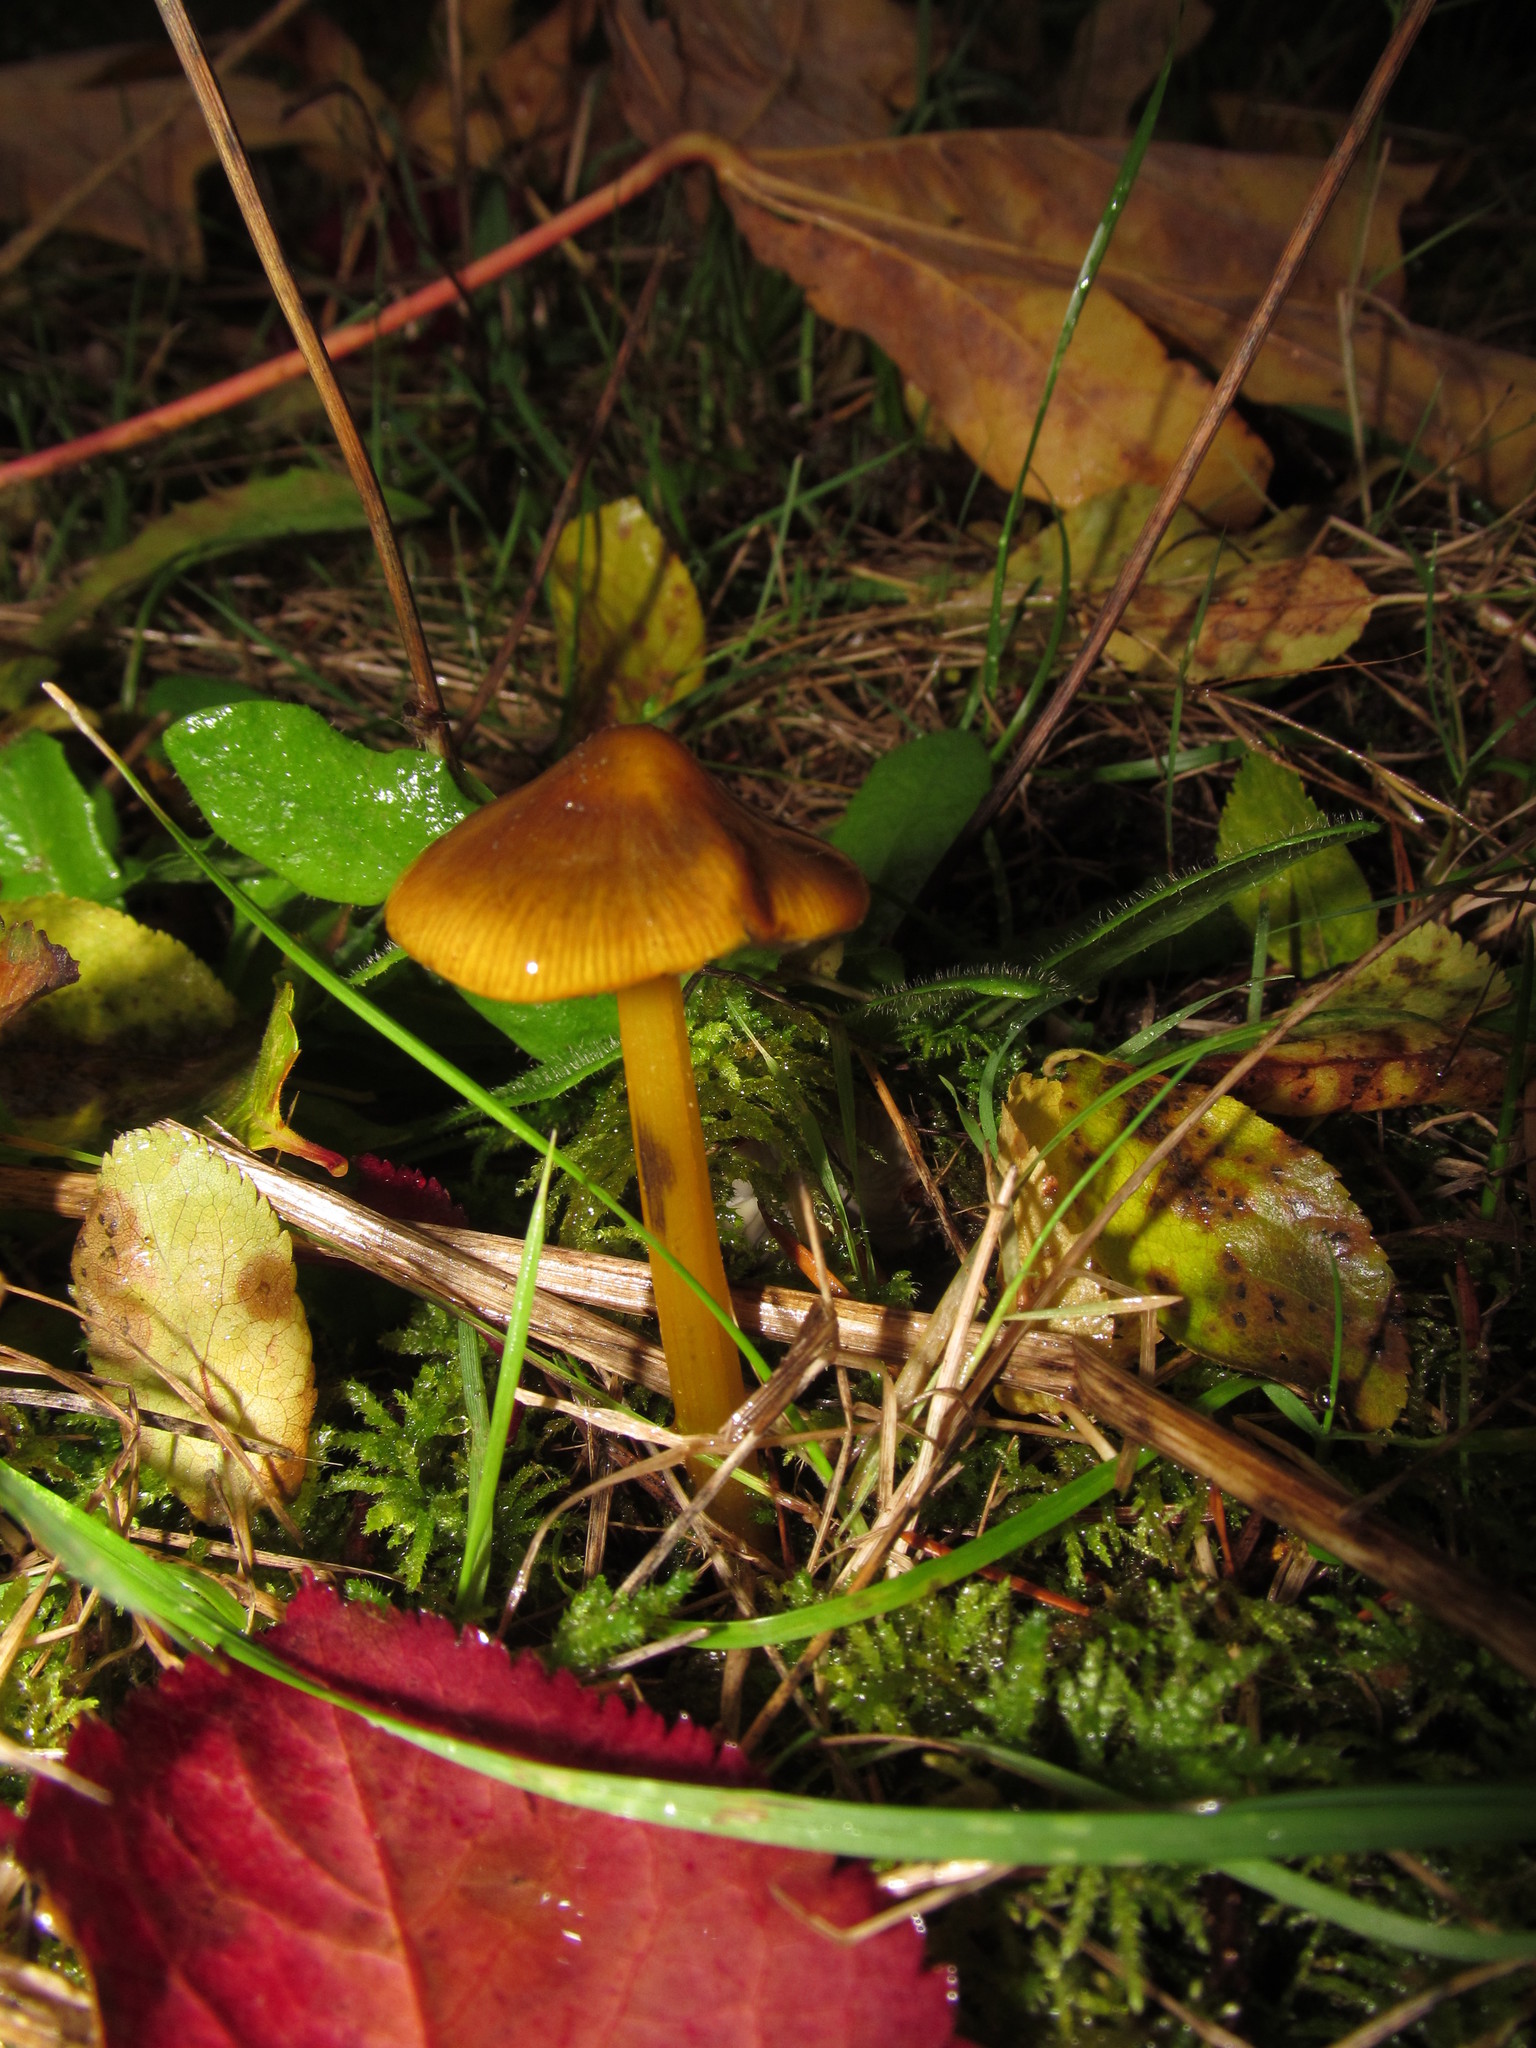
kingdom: Fungi
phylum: Basidiomycota
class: Agaricomycetes
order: Agaricales
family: Hygrophoraceae
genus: Hygrocybe
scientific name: Hygrocybe singeri
